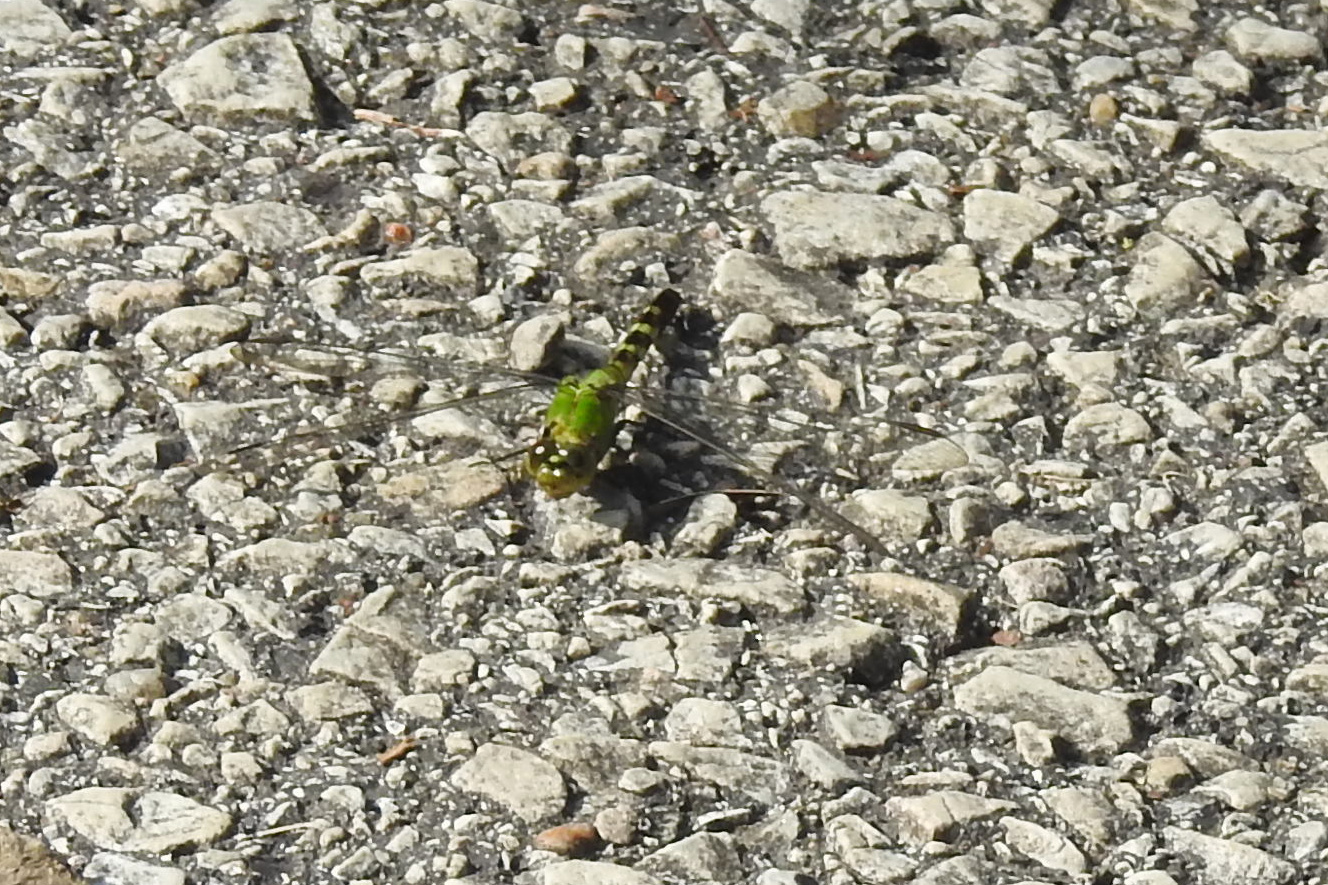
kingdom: Animalia
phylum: Arthropoda
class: Insecta
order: Odonata
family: Libellulidae
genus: Erythemis
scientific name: Erythemis simplicicollis
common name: Eastern pondhawk
